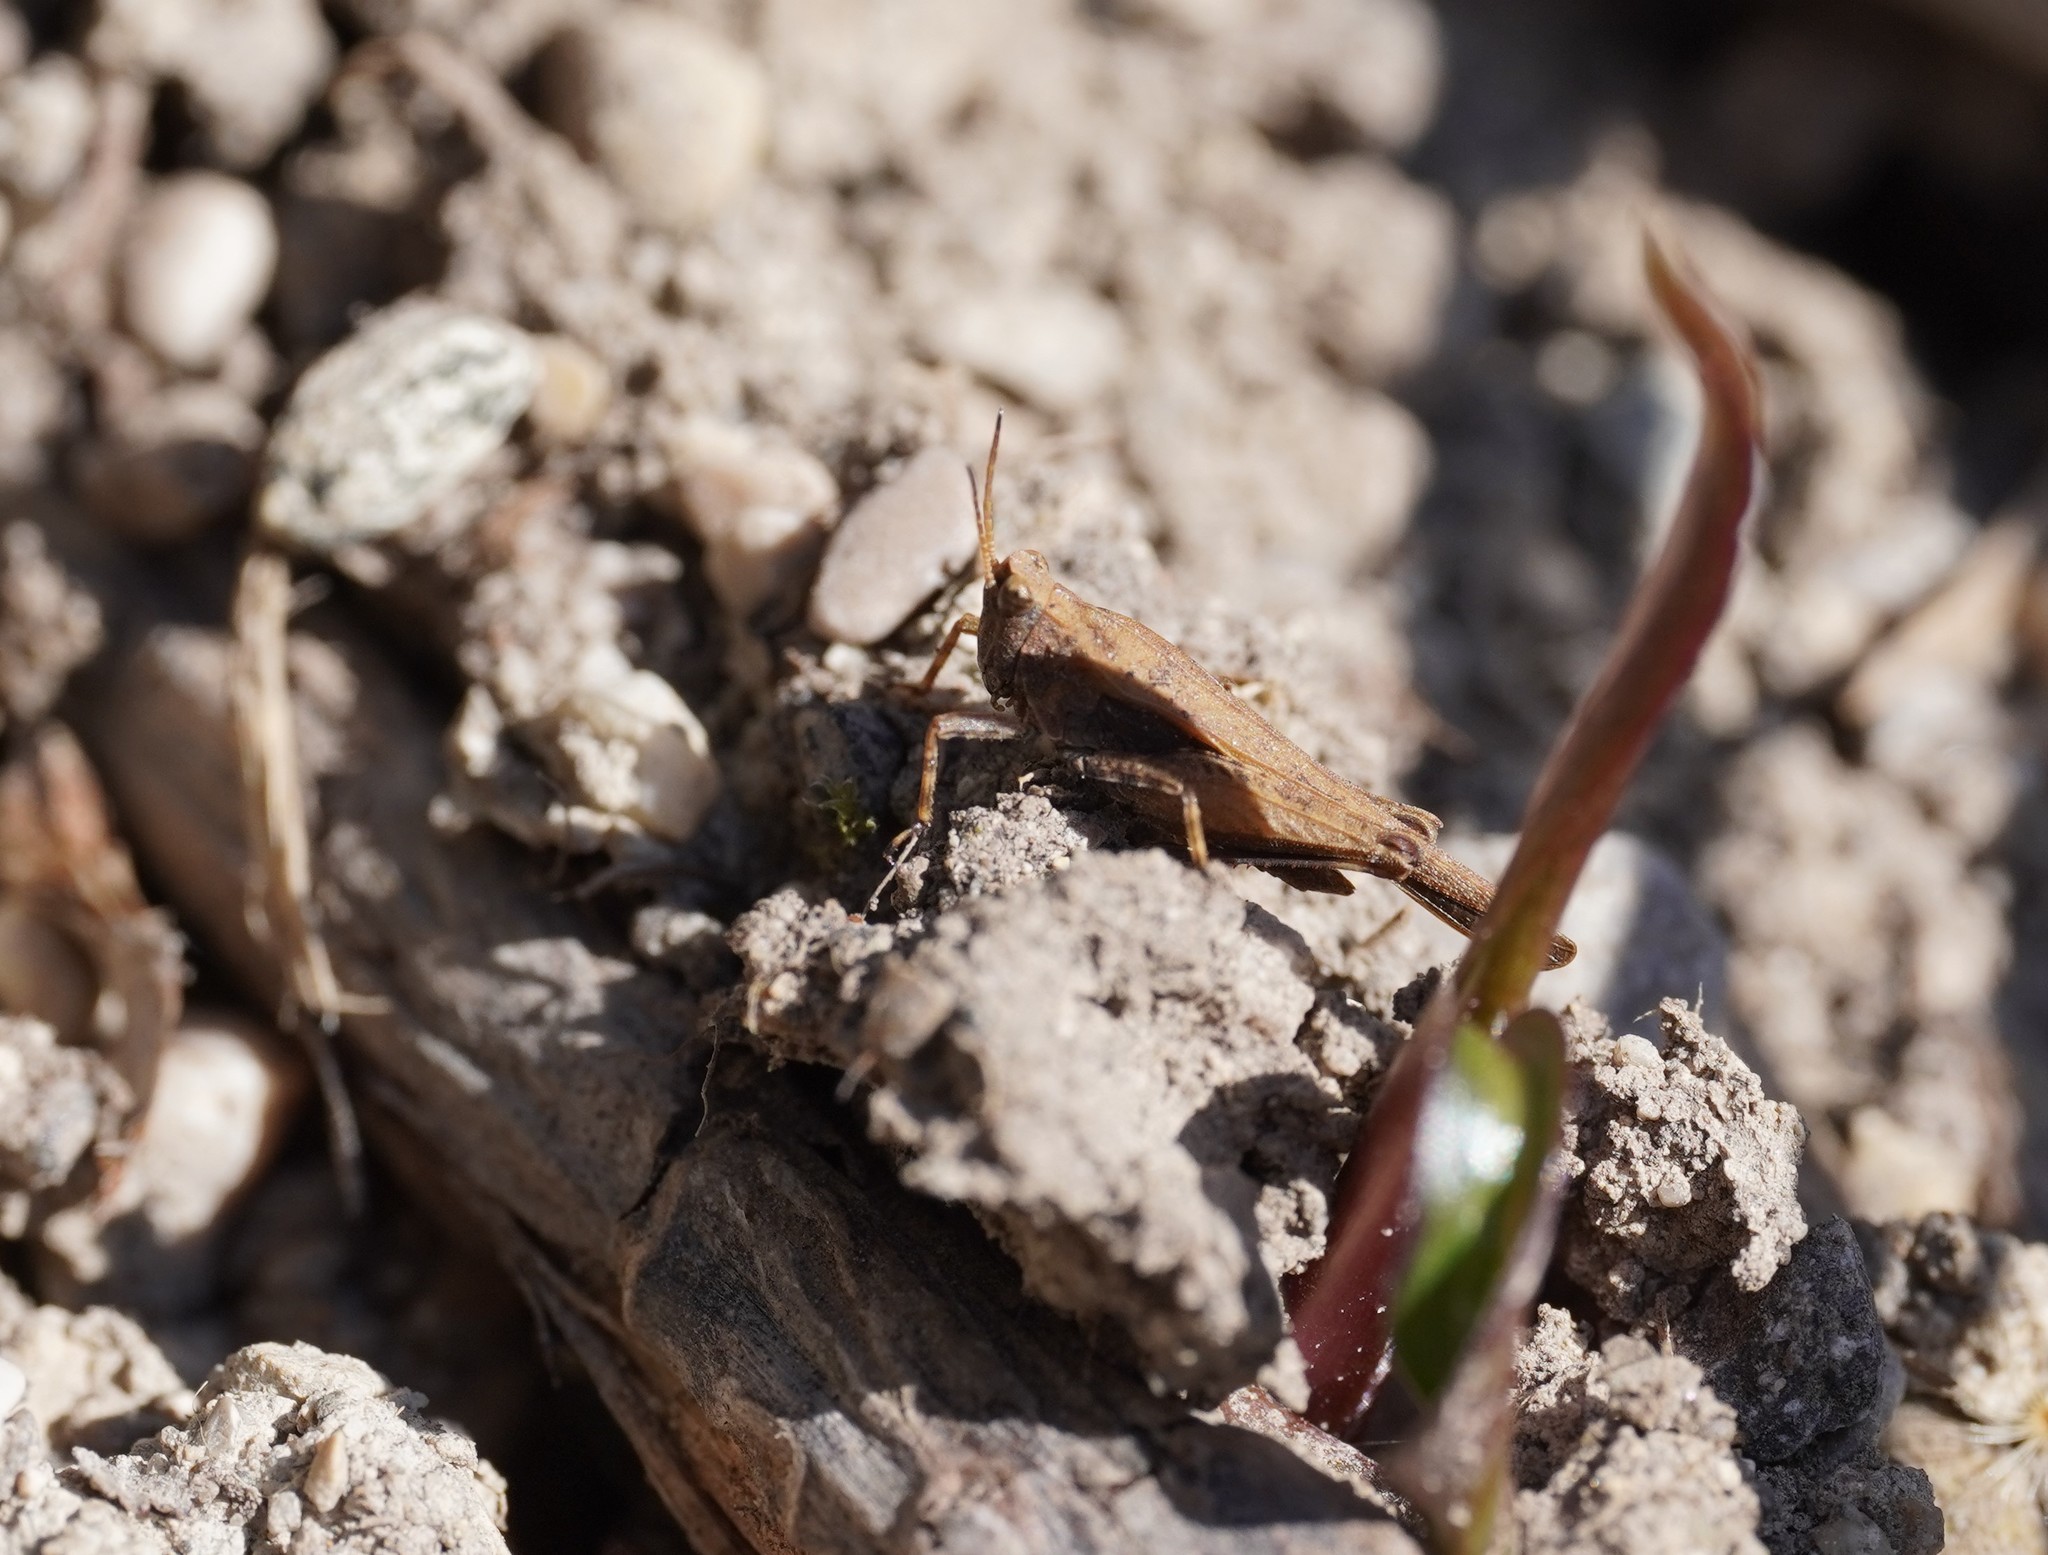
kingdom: Animalia
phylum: Arthropoda
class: Insecta
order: Orthoptera
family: Tetrigidae
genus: Tetrix
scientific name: Tetrix subulata
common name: Slender ground-hopper
